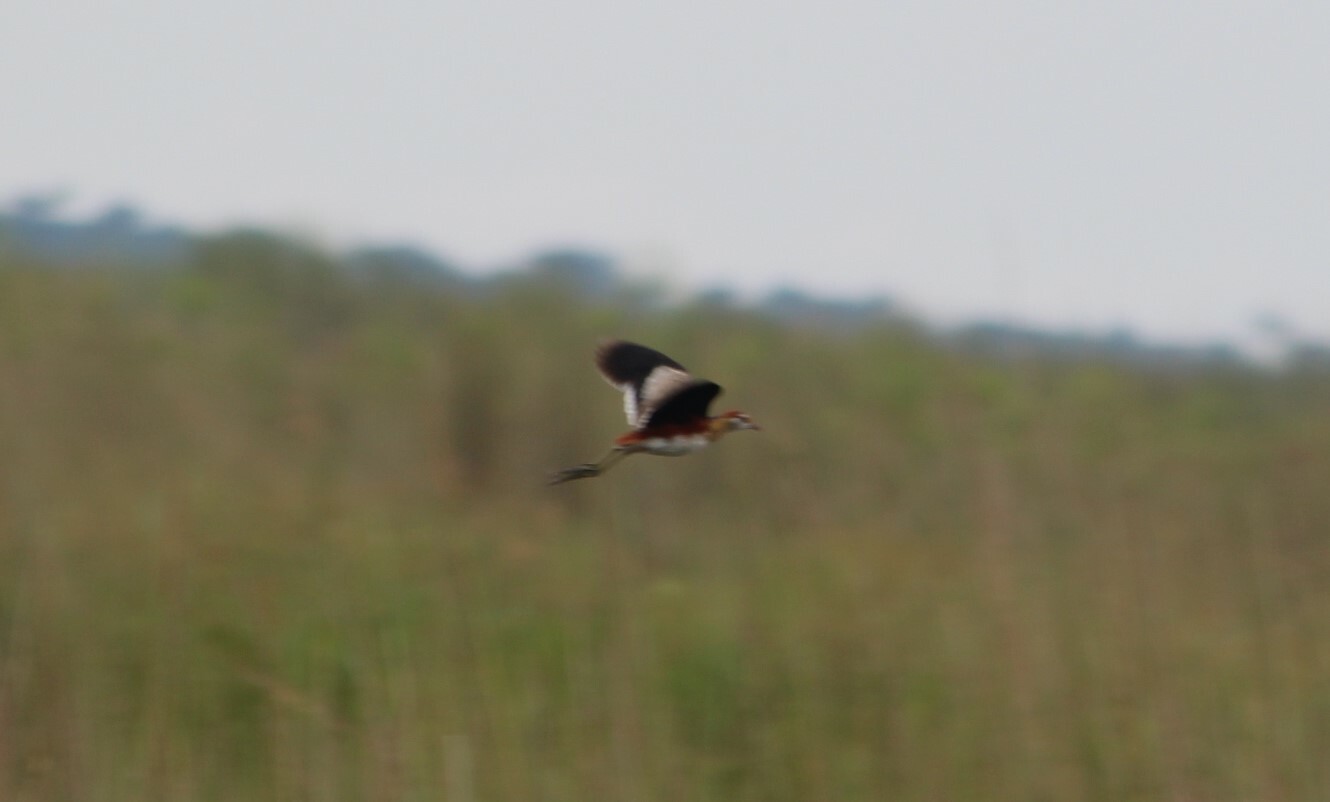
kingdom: Animalia
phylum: Chordata
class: Aves
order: Charadriiformes
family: Jacanidae
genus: Microparra
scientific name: Microparra capensis
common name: Lesser jacana
